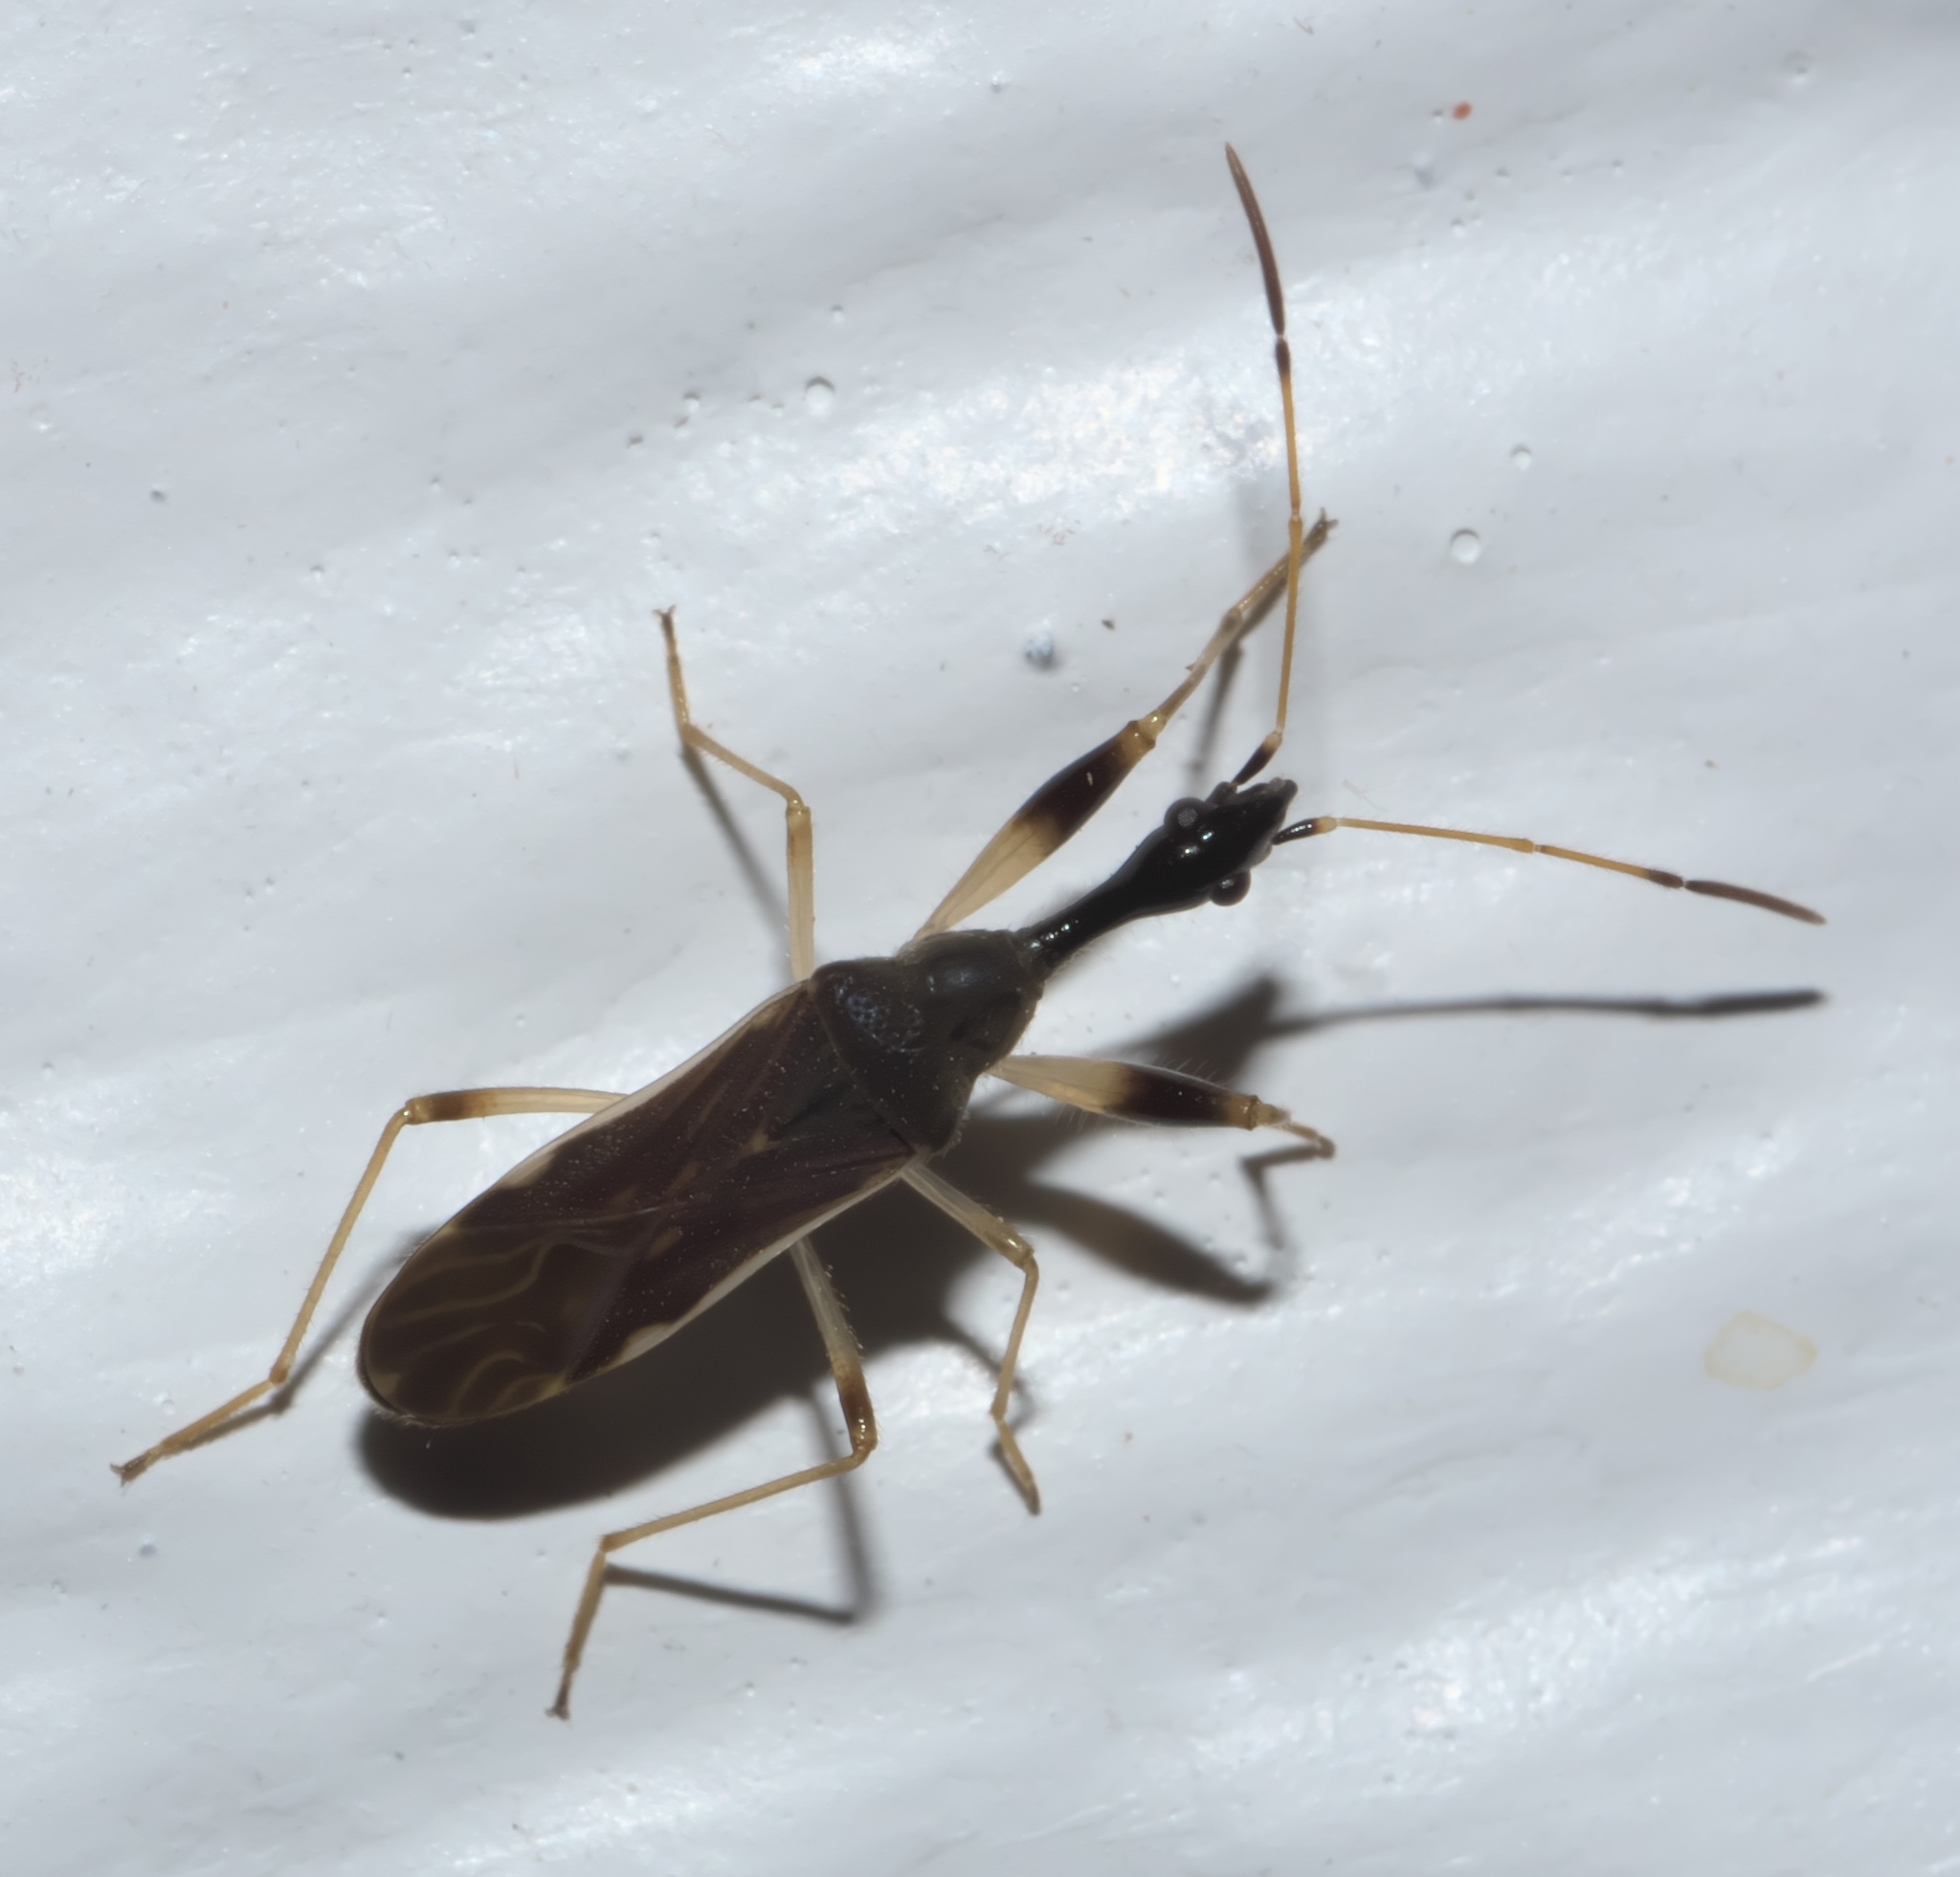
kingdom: Animalia
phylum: Arthropoda
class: Insecta
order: Hemiptera
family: Rhyparochromidae
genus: Myodocha
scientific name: Myodocha serripes
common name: Long-necked seed bug
